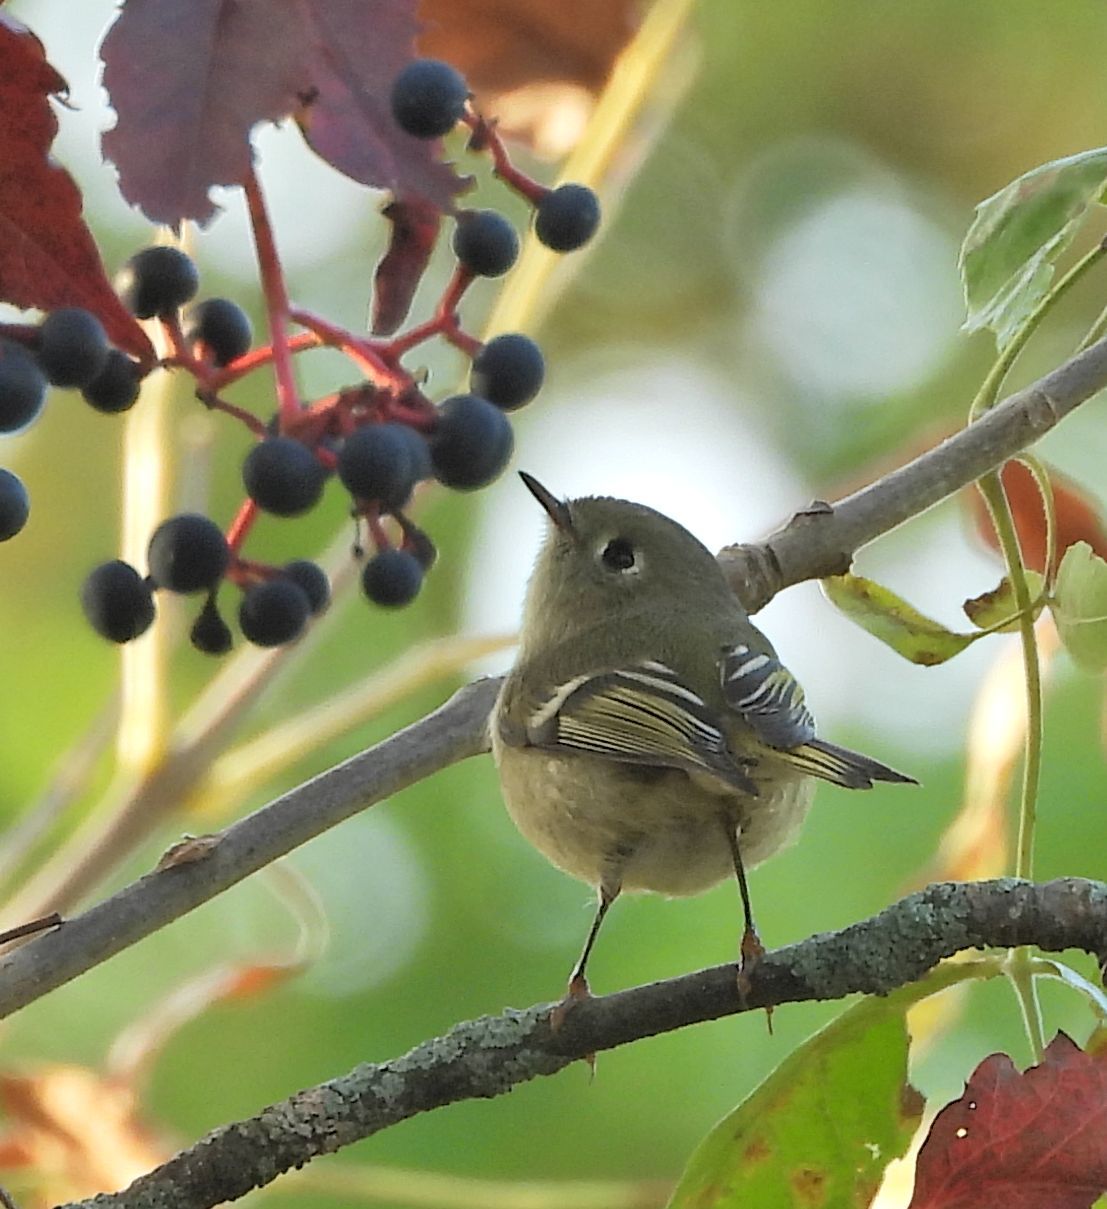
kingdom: Animalia
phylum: Chordata
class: Aves
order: Passeriformes
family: Regulidae
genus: Regulus
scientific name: Regulus calendula
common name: Ruby-crowned kinglet
